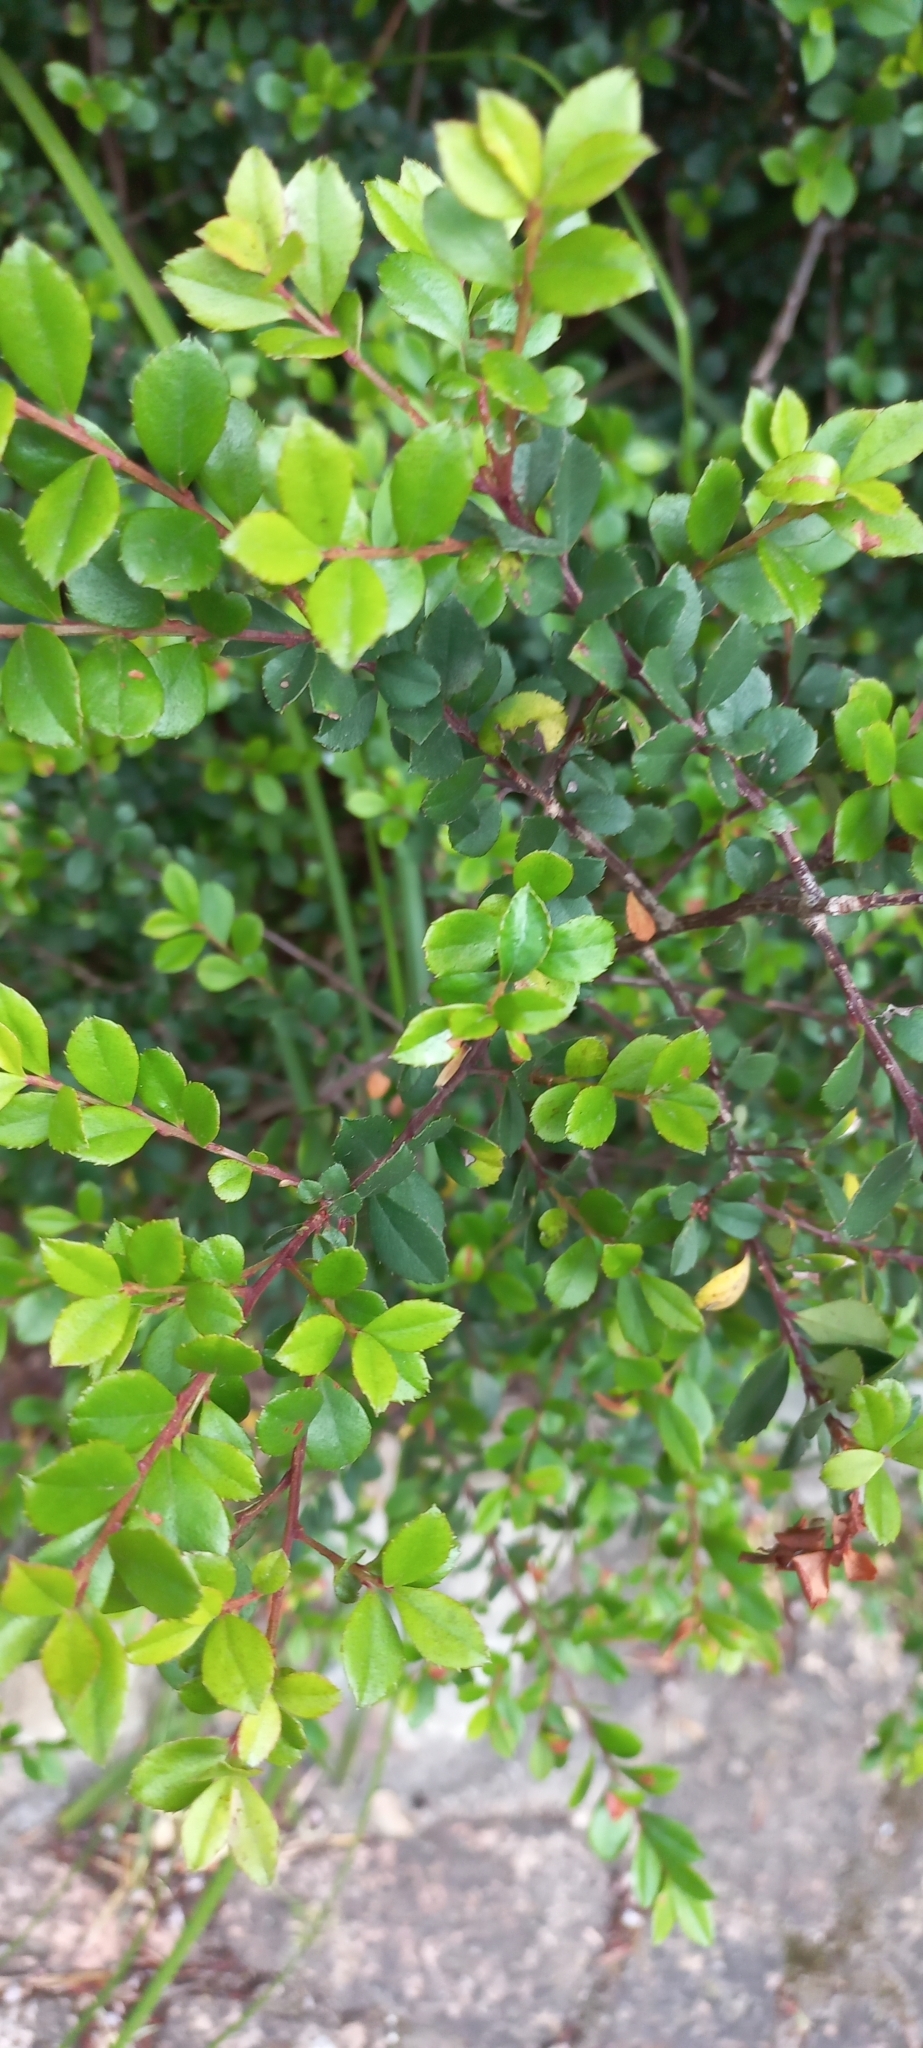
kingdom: Plantae
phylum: Tracheophyta
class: Magnoliopsida
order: Ericales
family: Primulaceae
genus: Myrsine
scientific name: Myrsine africana
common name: African-boxwood
